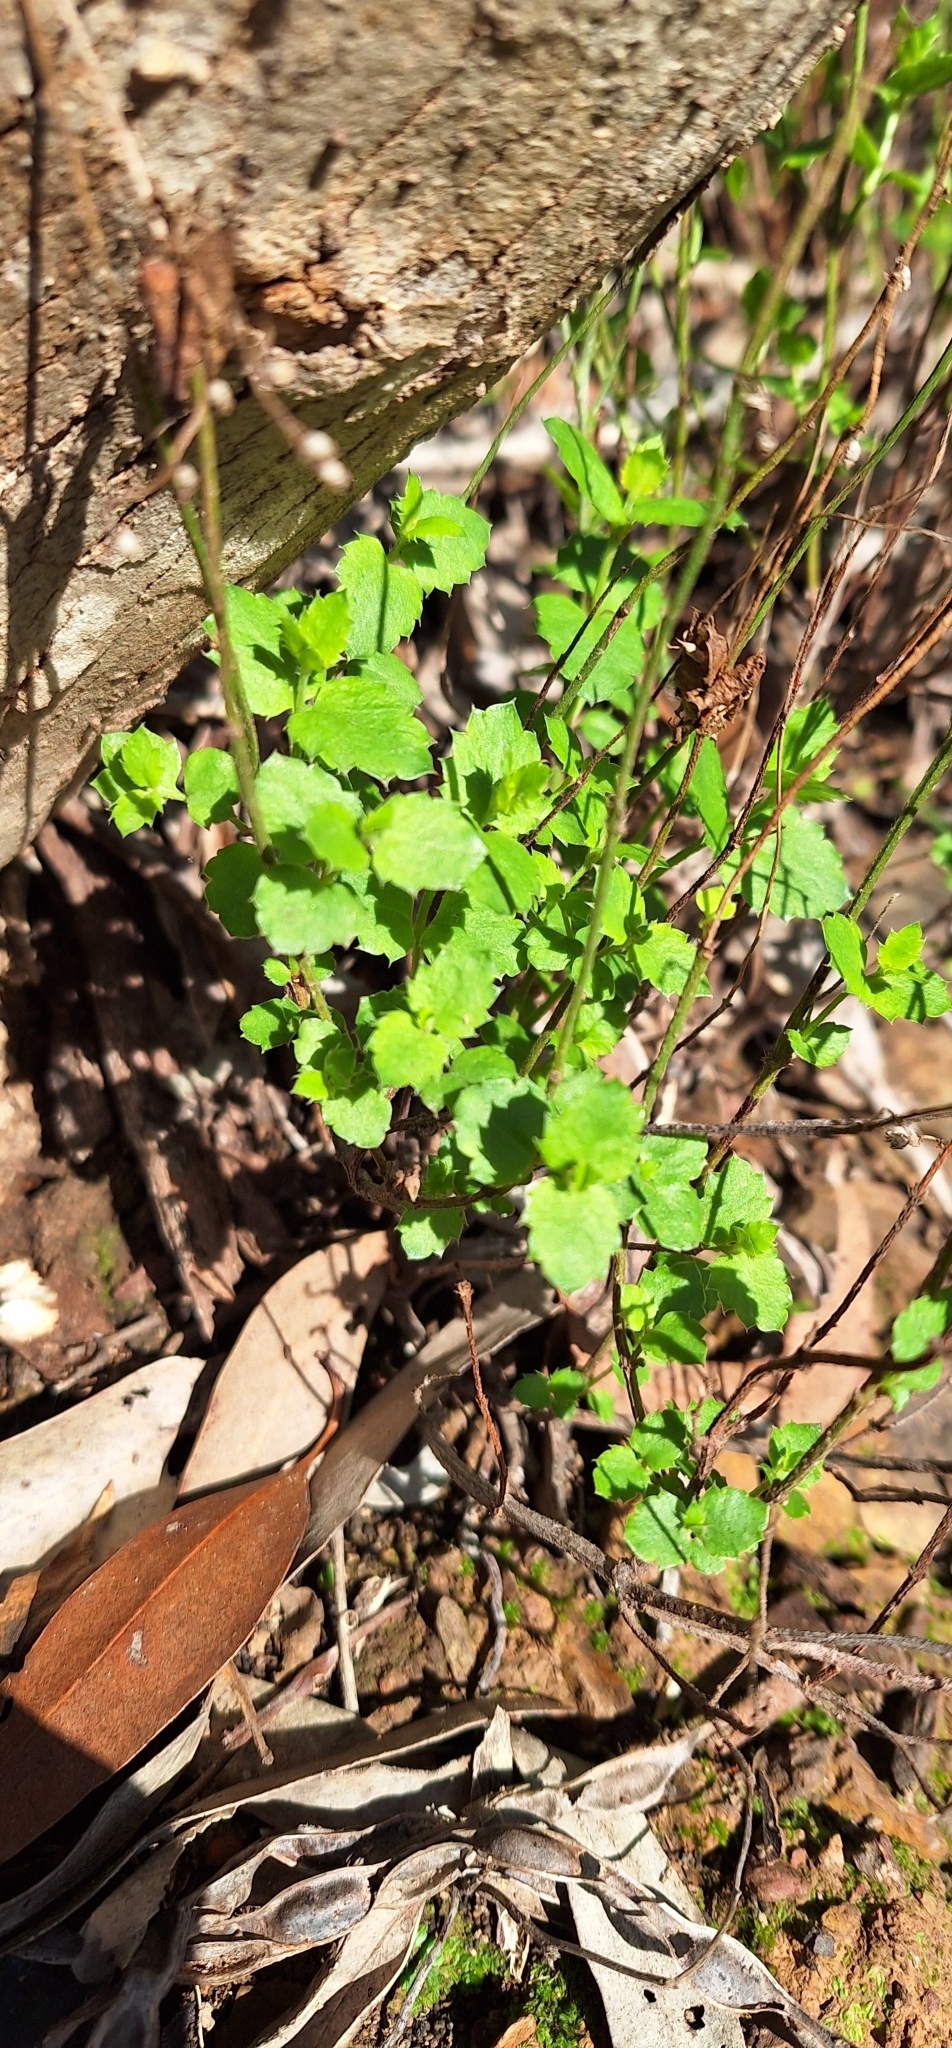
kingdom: Plantae
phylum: Tracheophyta
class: Magnoliopsida
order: Saxifragales
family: Haloragaceae
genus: Gonocarpus
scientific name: Gonocarpus mezianus
